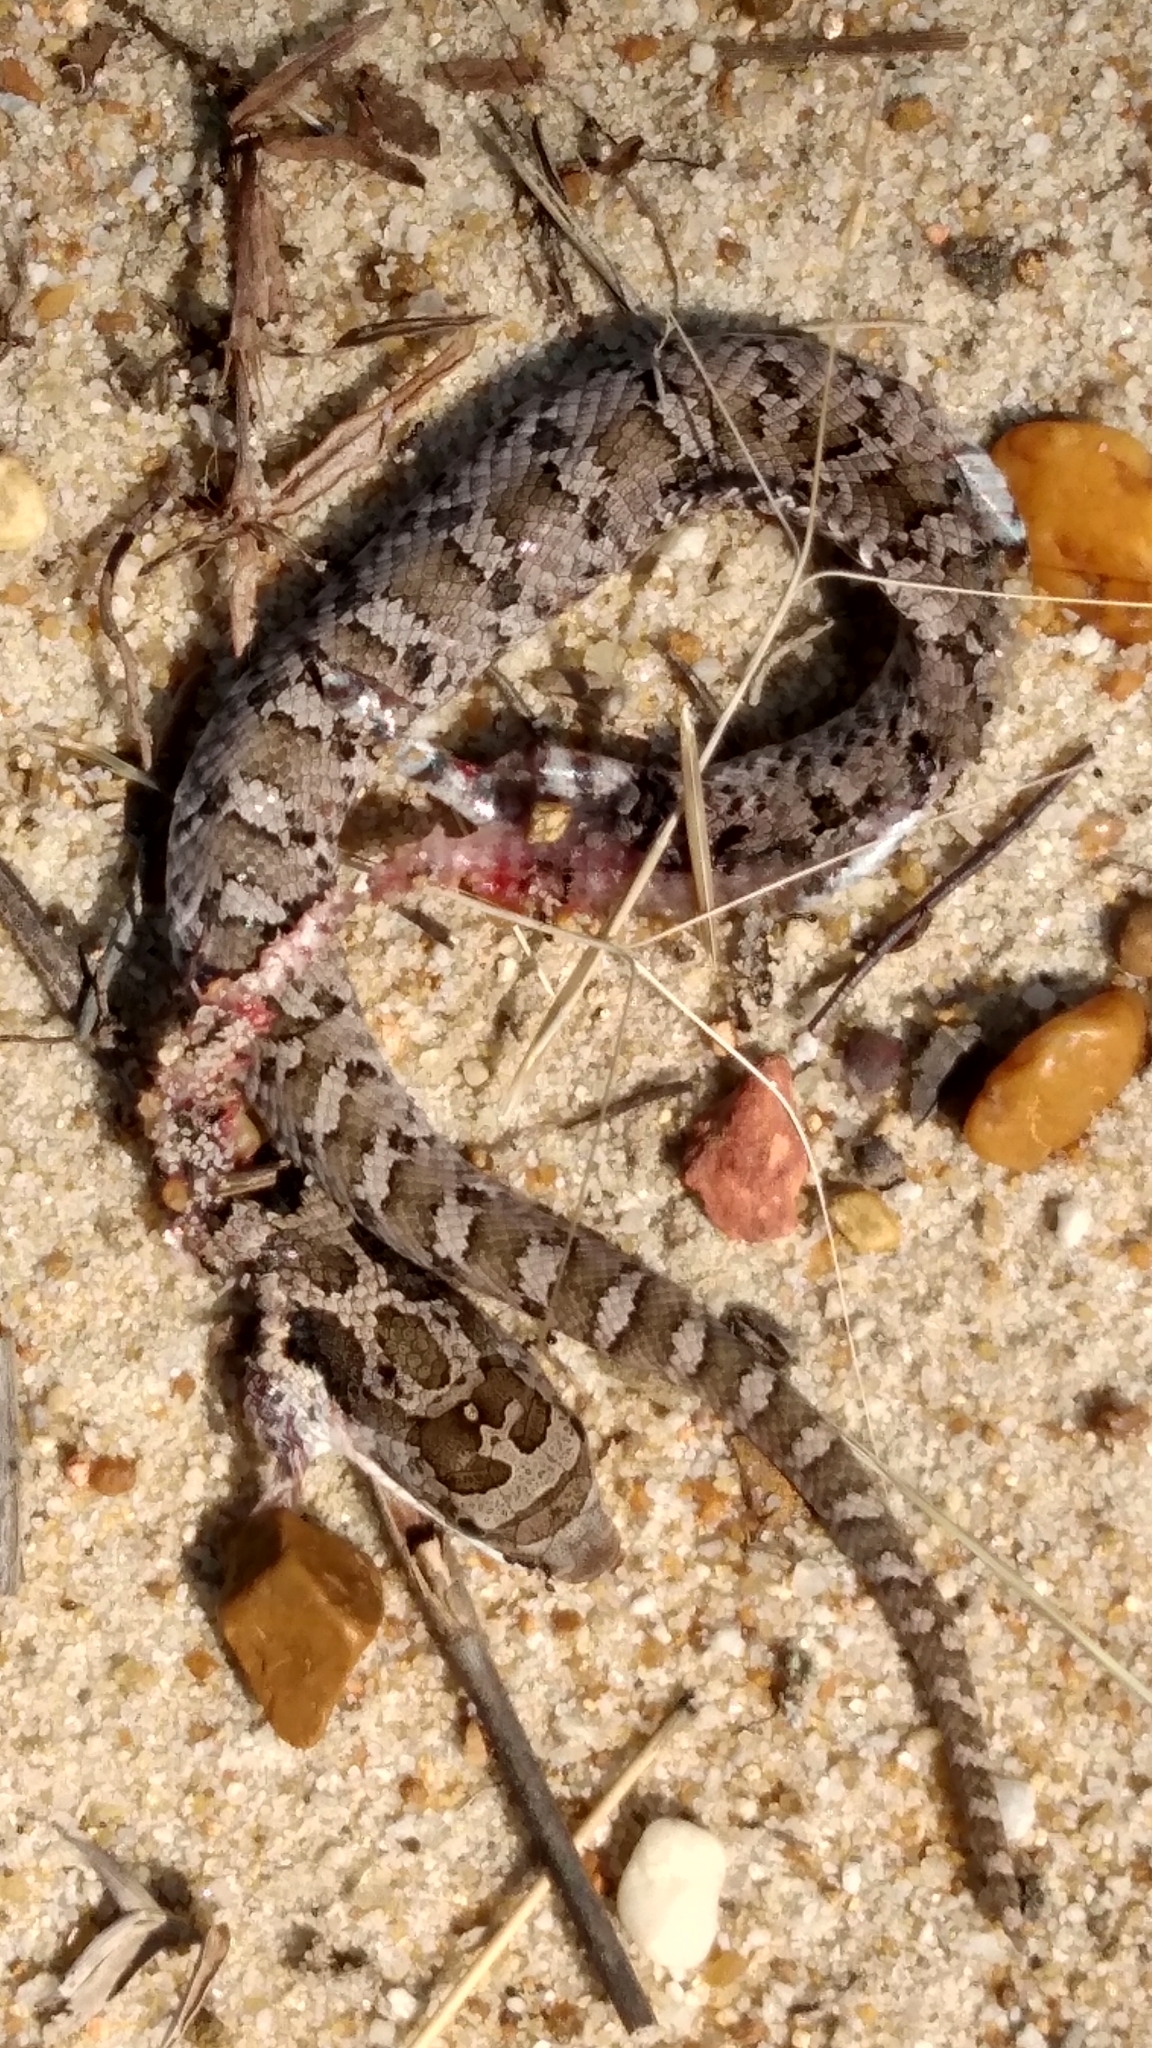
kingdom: Animalia
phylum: Chordata
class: Squamata
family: Colubridae
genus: Heterodon
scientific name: Heterodon platirhinos
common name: Eastern hognose snake
